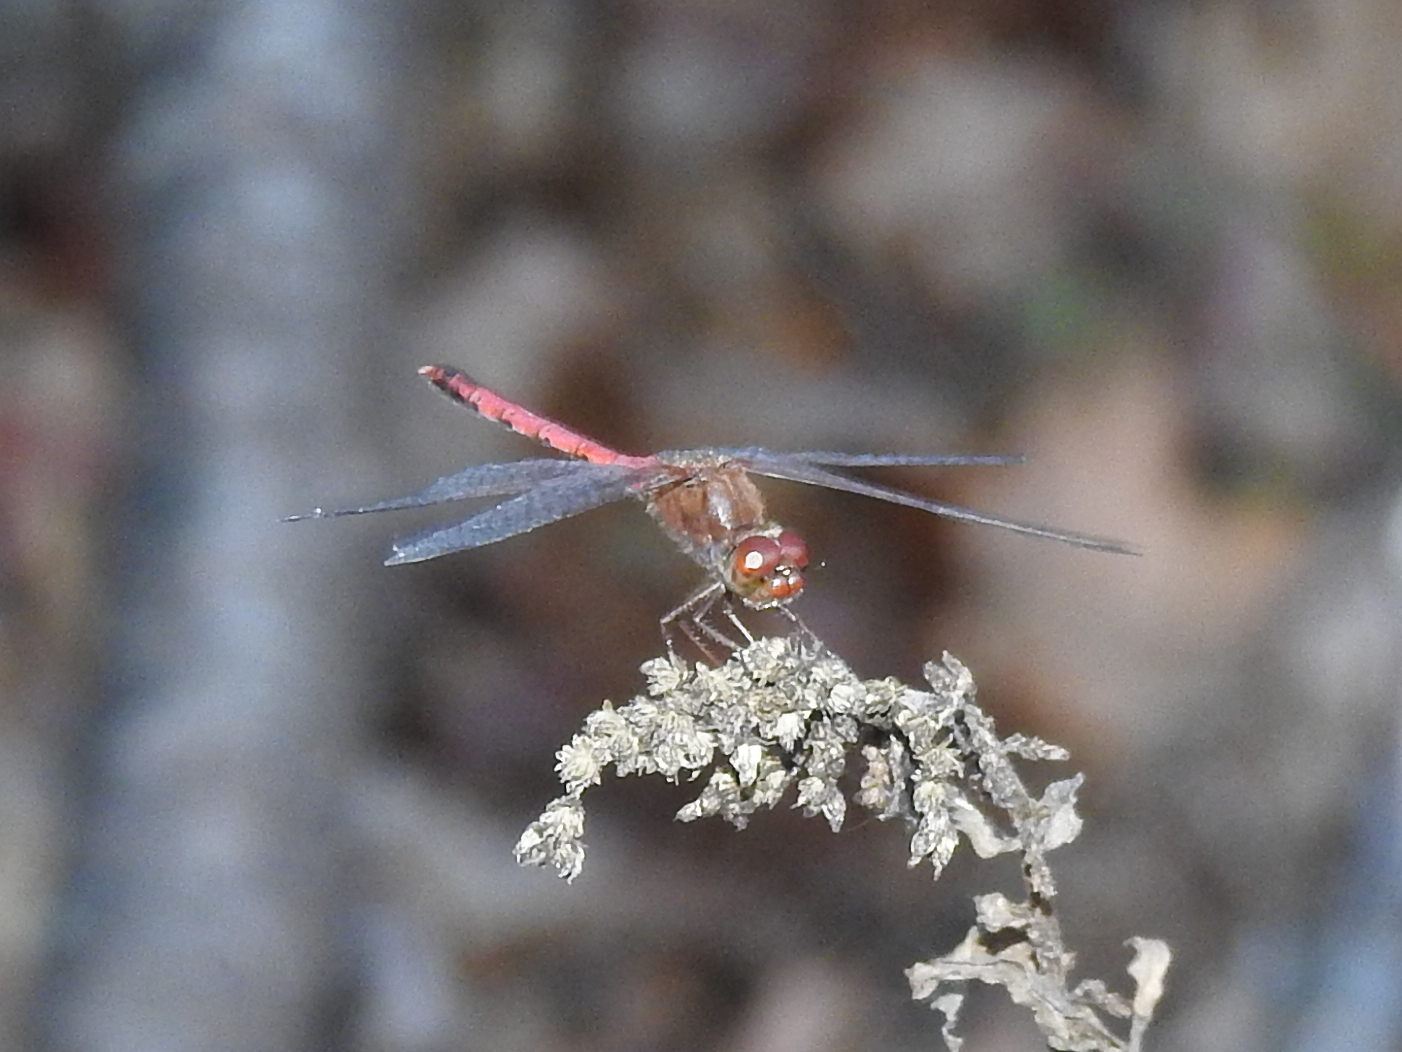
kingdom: Animalia
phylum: Arthropoda
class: Insecta
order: Odonata
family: Libellulidae
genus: Sympetrum
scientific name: Sympetrum vicinum
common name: Autumn meadowhawk
